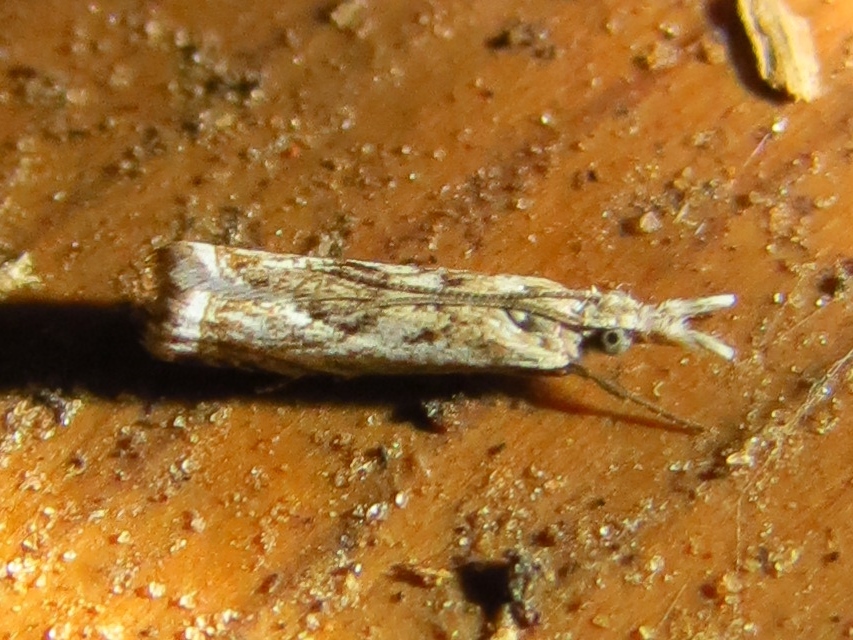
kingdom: Animalia
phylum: Arthropoda
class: Insecta
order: Lepidoptera
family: Crambidae
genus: Microcrambus
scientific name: Microcrambus elegans
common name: Elegant grass-veneer
